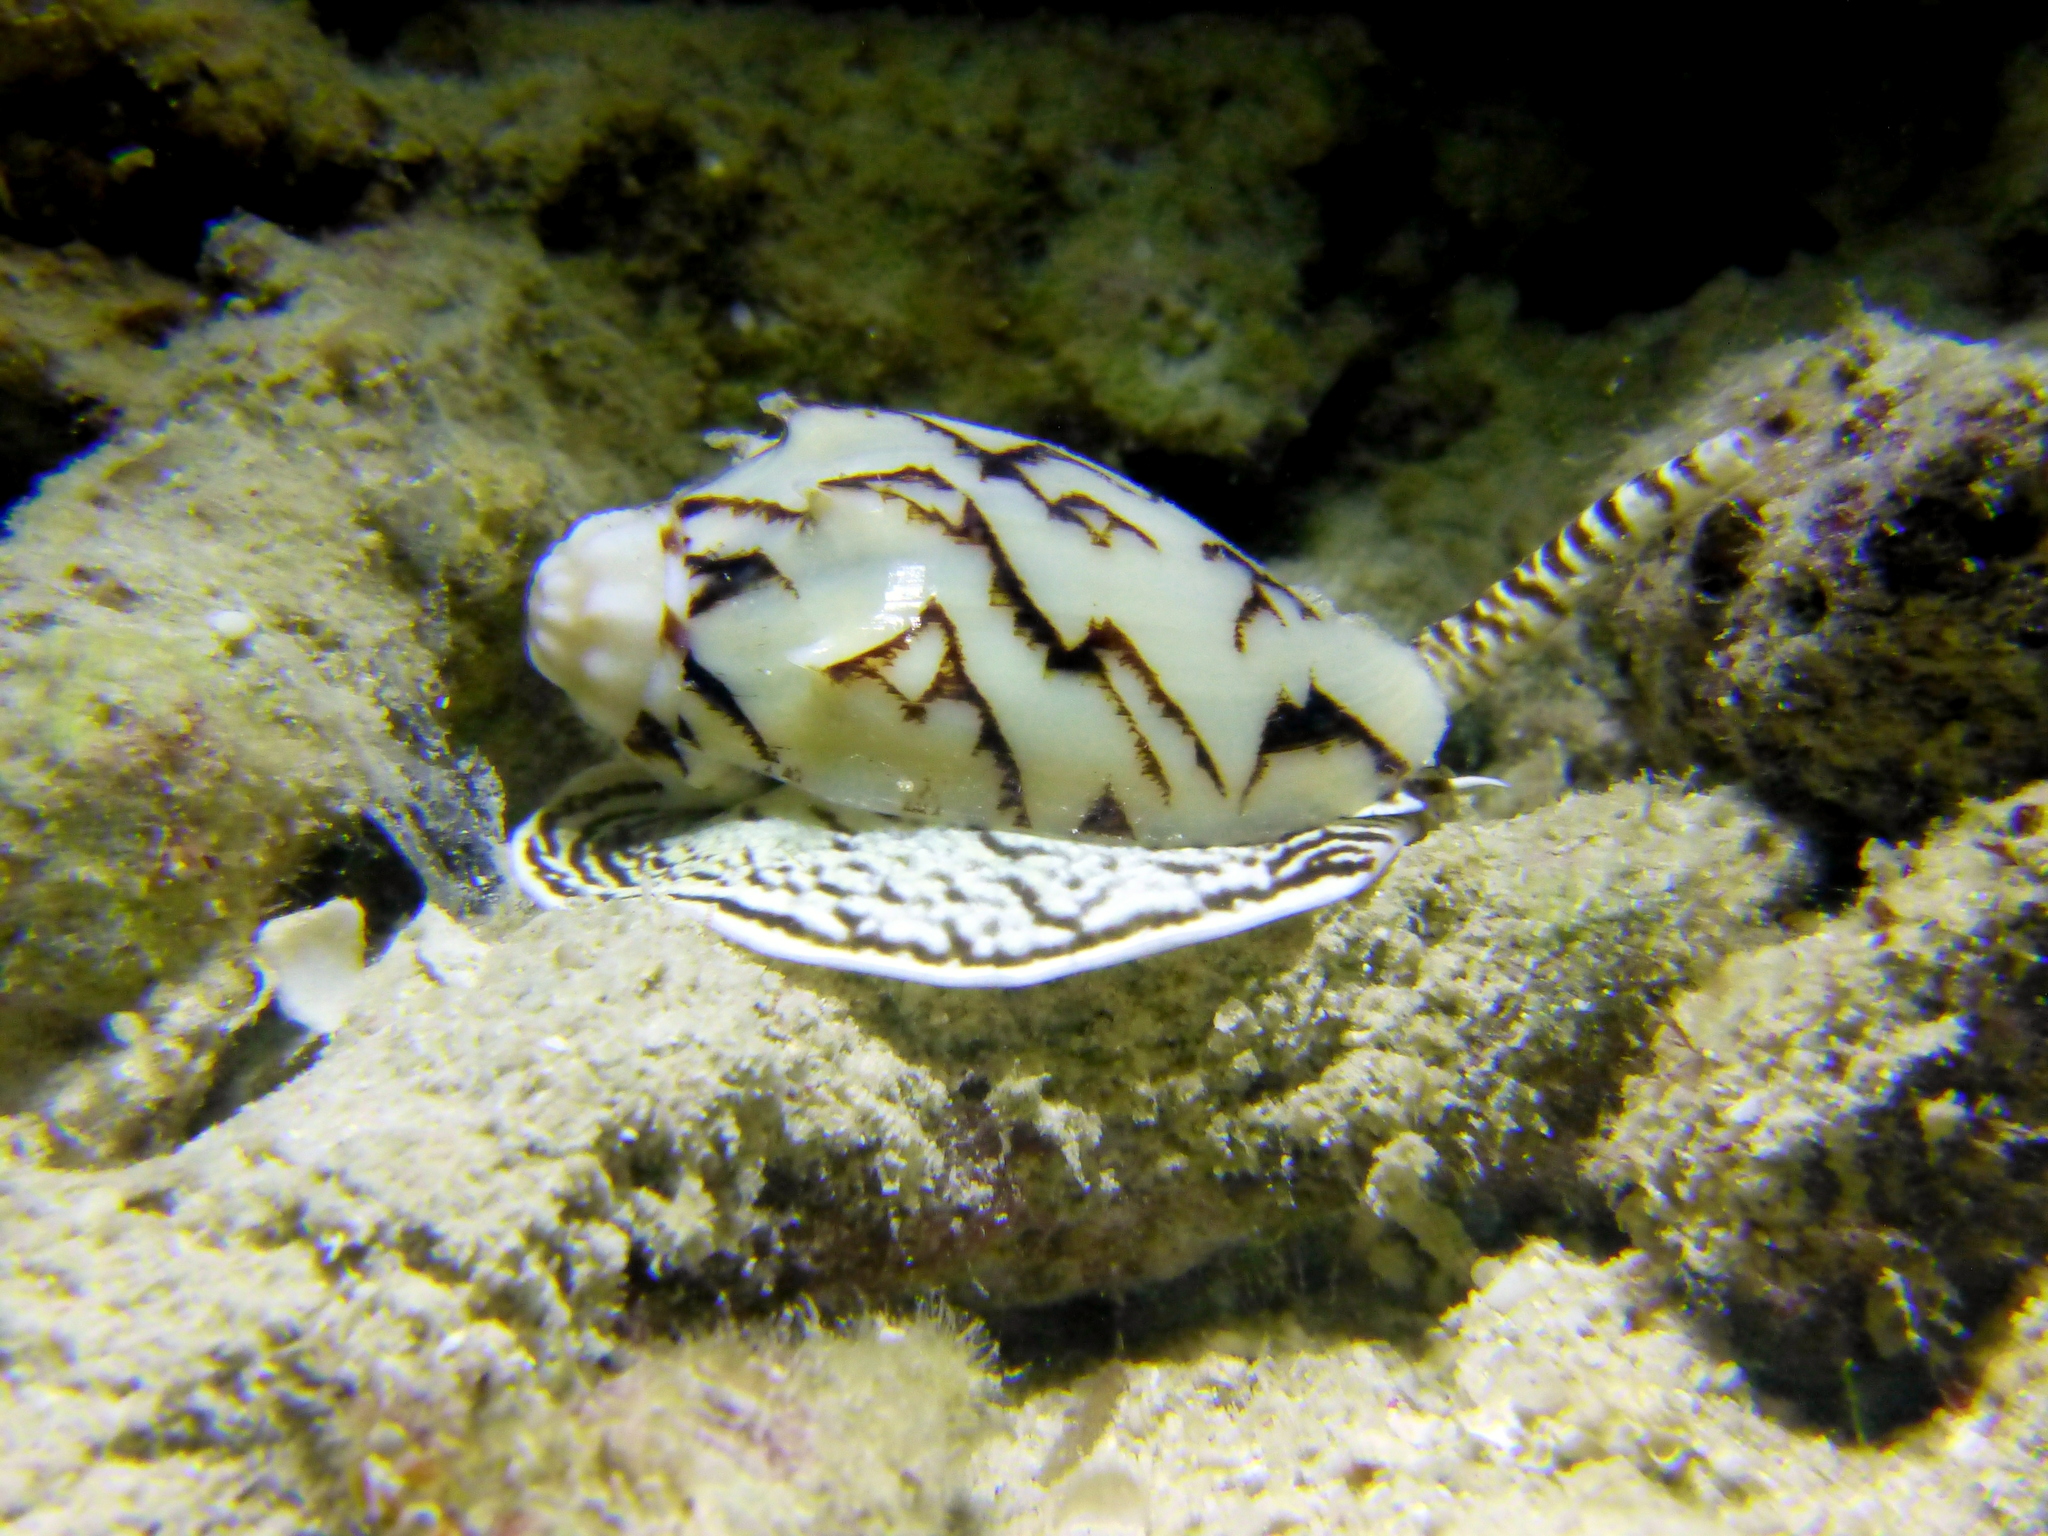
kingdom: Animalia
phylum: Mollusca
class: Gastropoda
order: Neogastropoda
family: Volutidae
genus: Cymbiola
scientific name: Cymbiola vespertilio
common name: Bat volute
